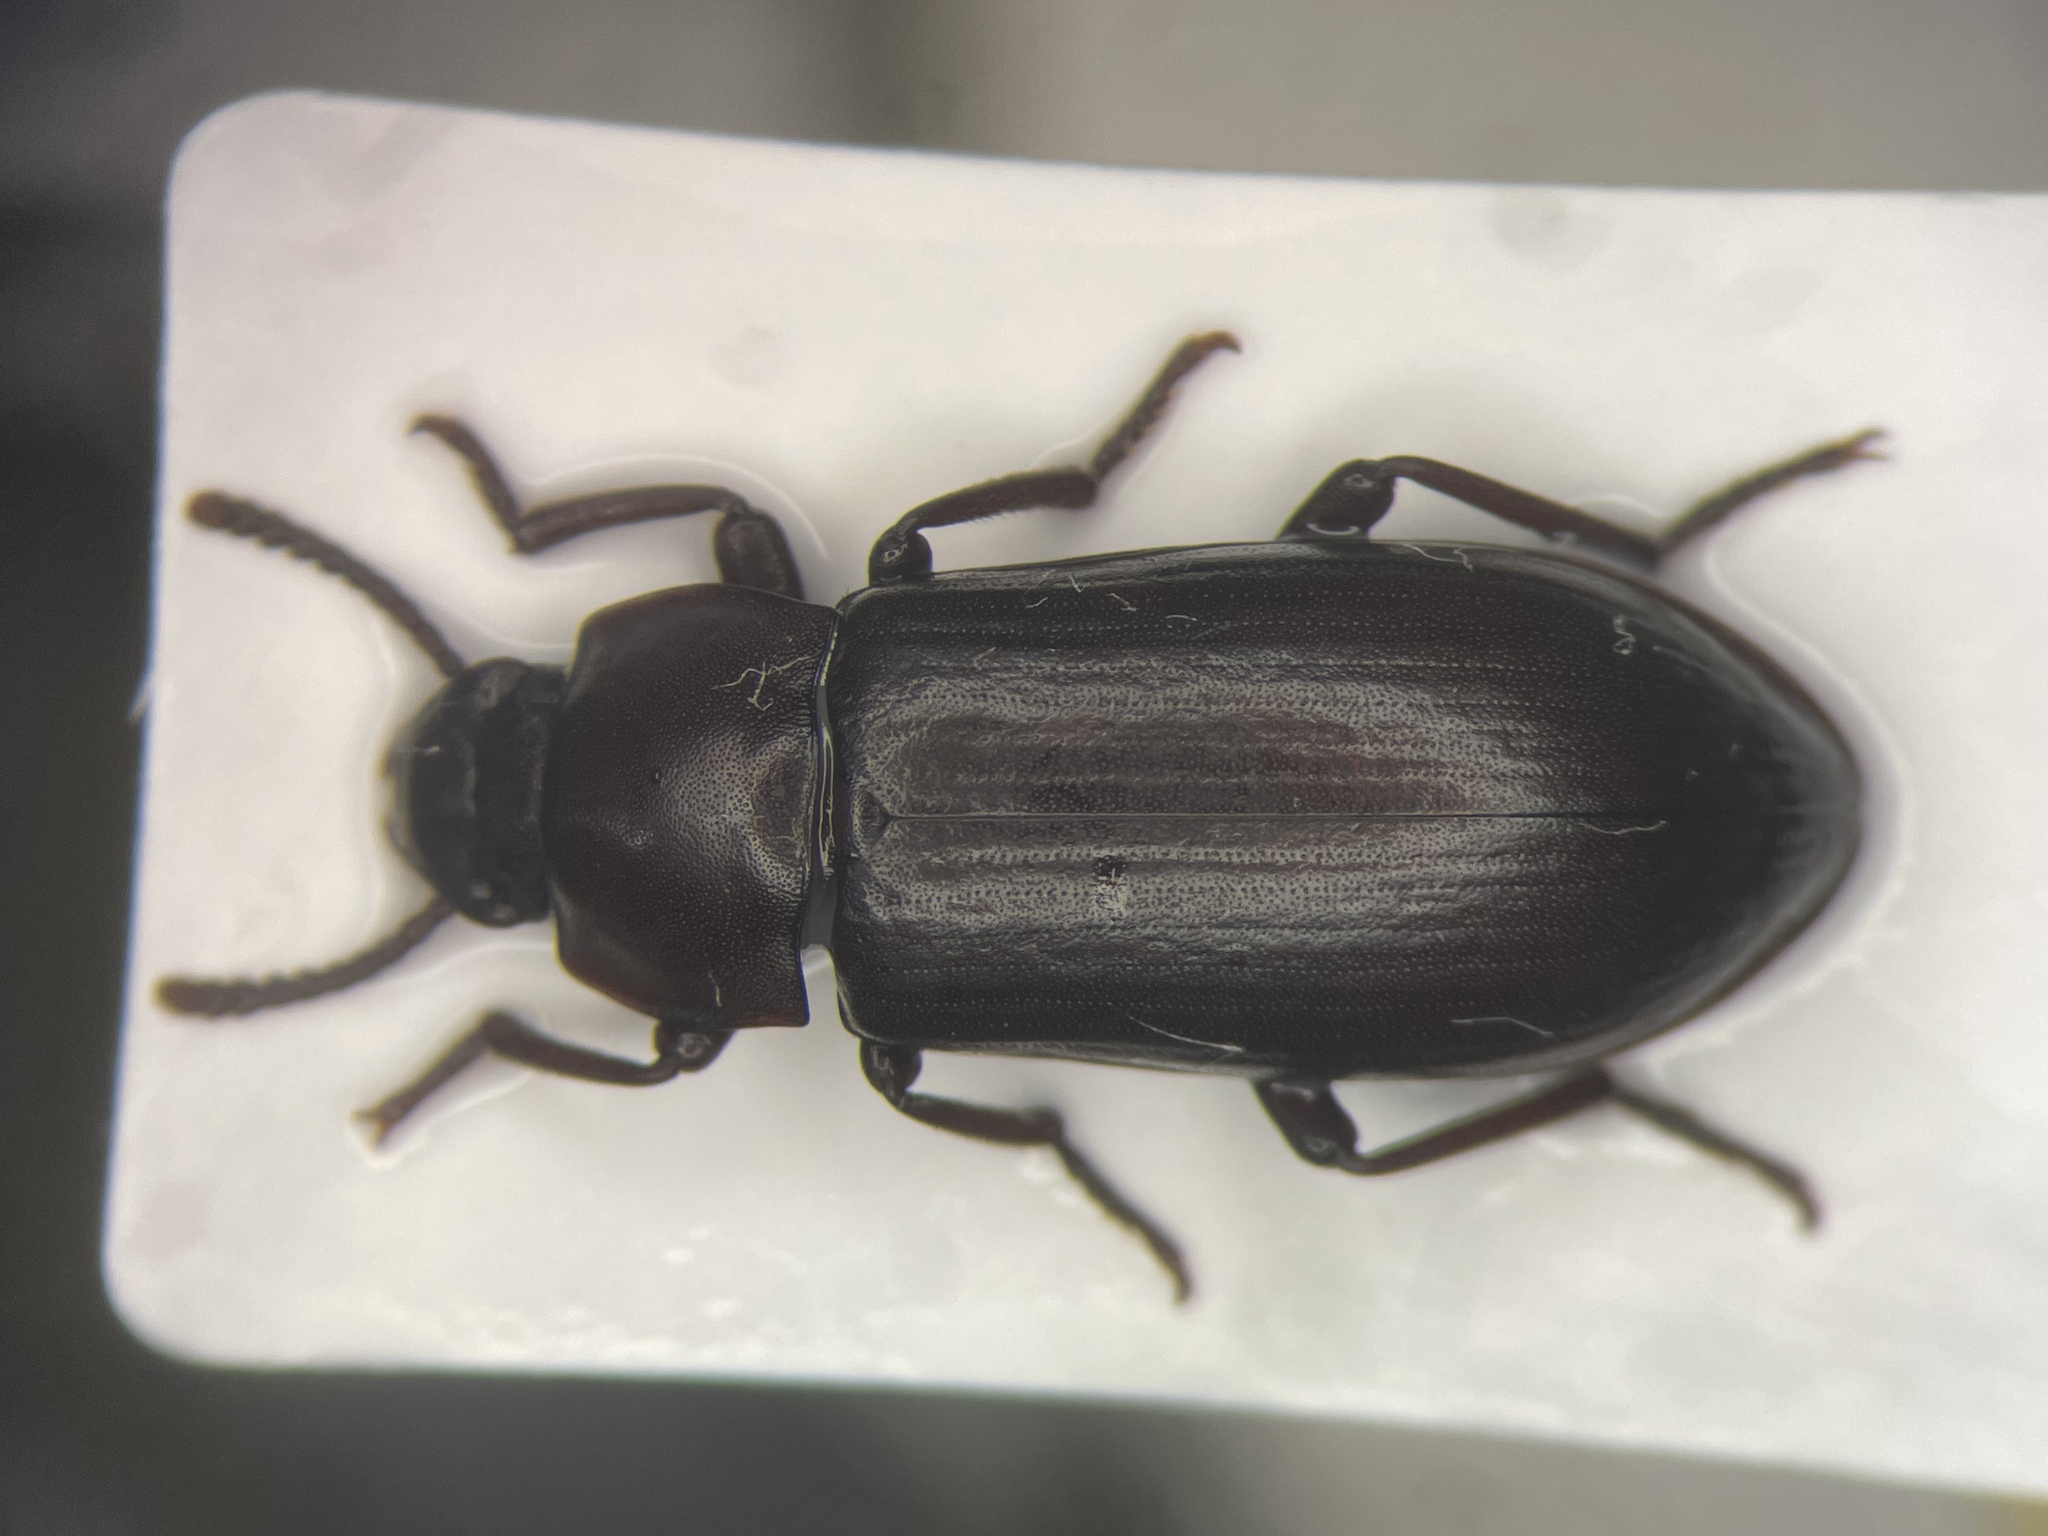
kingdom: Animalia
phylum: Arthropoda
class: Insecta
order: Coleoptera
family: Tenebrionidae
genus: Neatus
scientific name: Neatus tenebrioides
